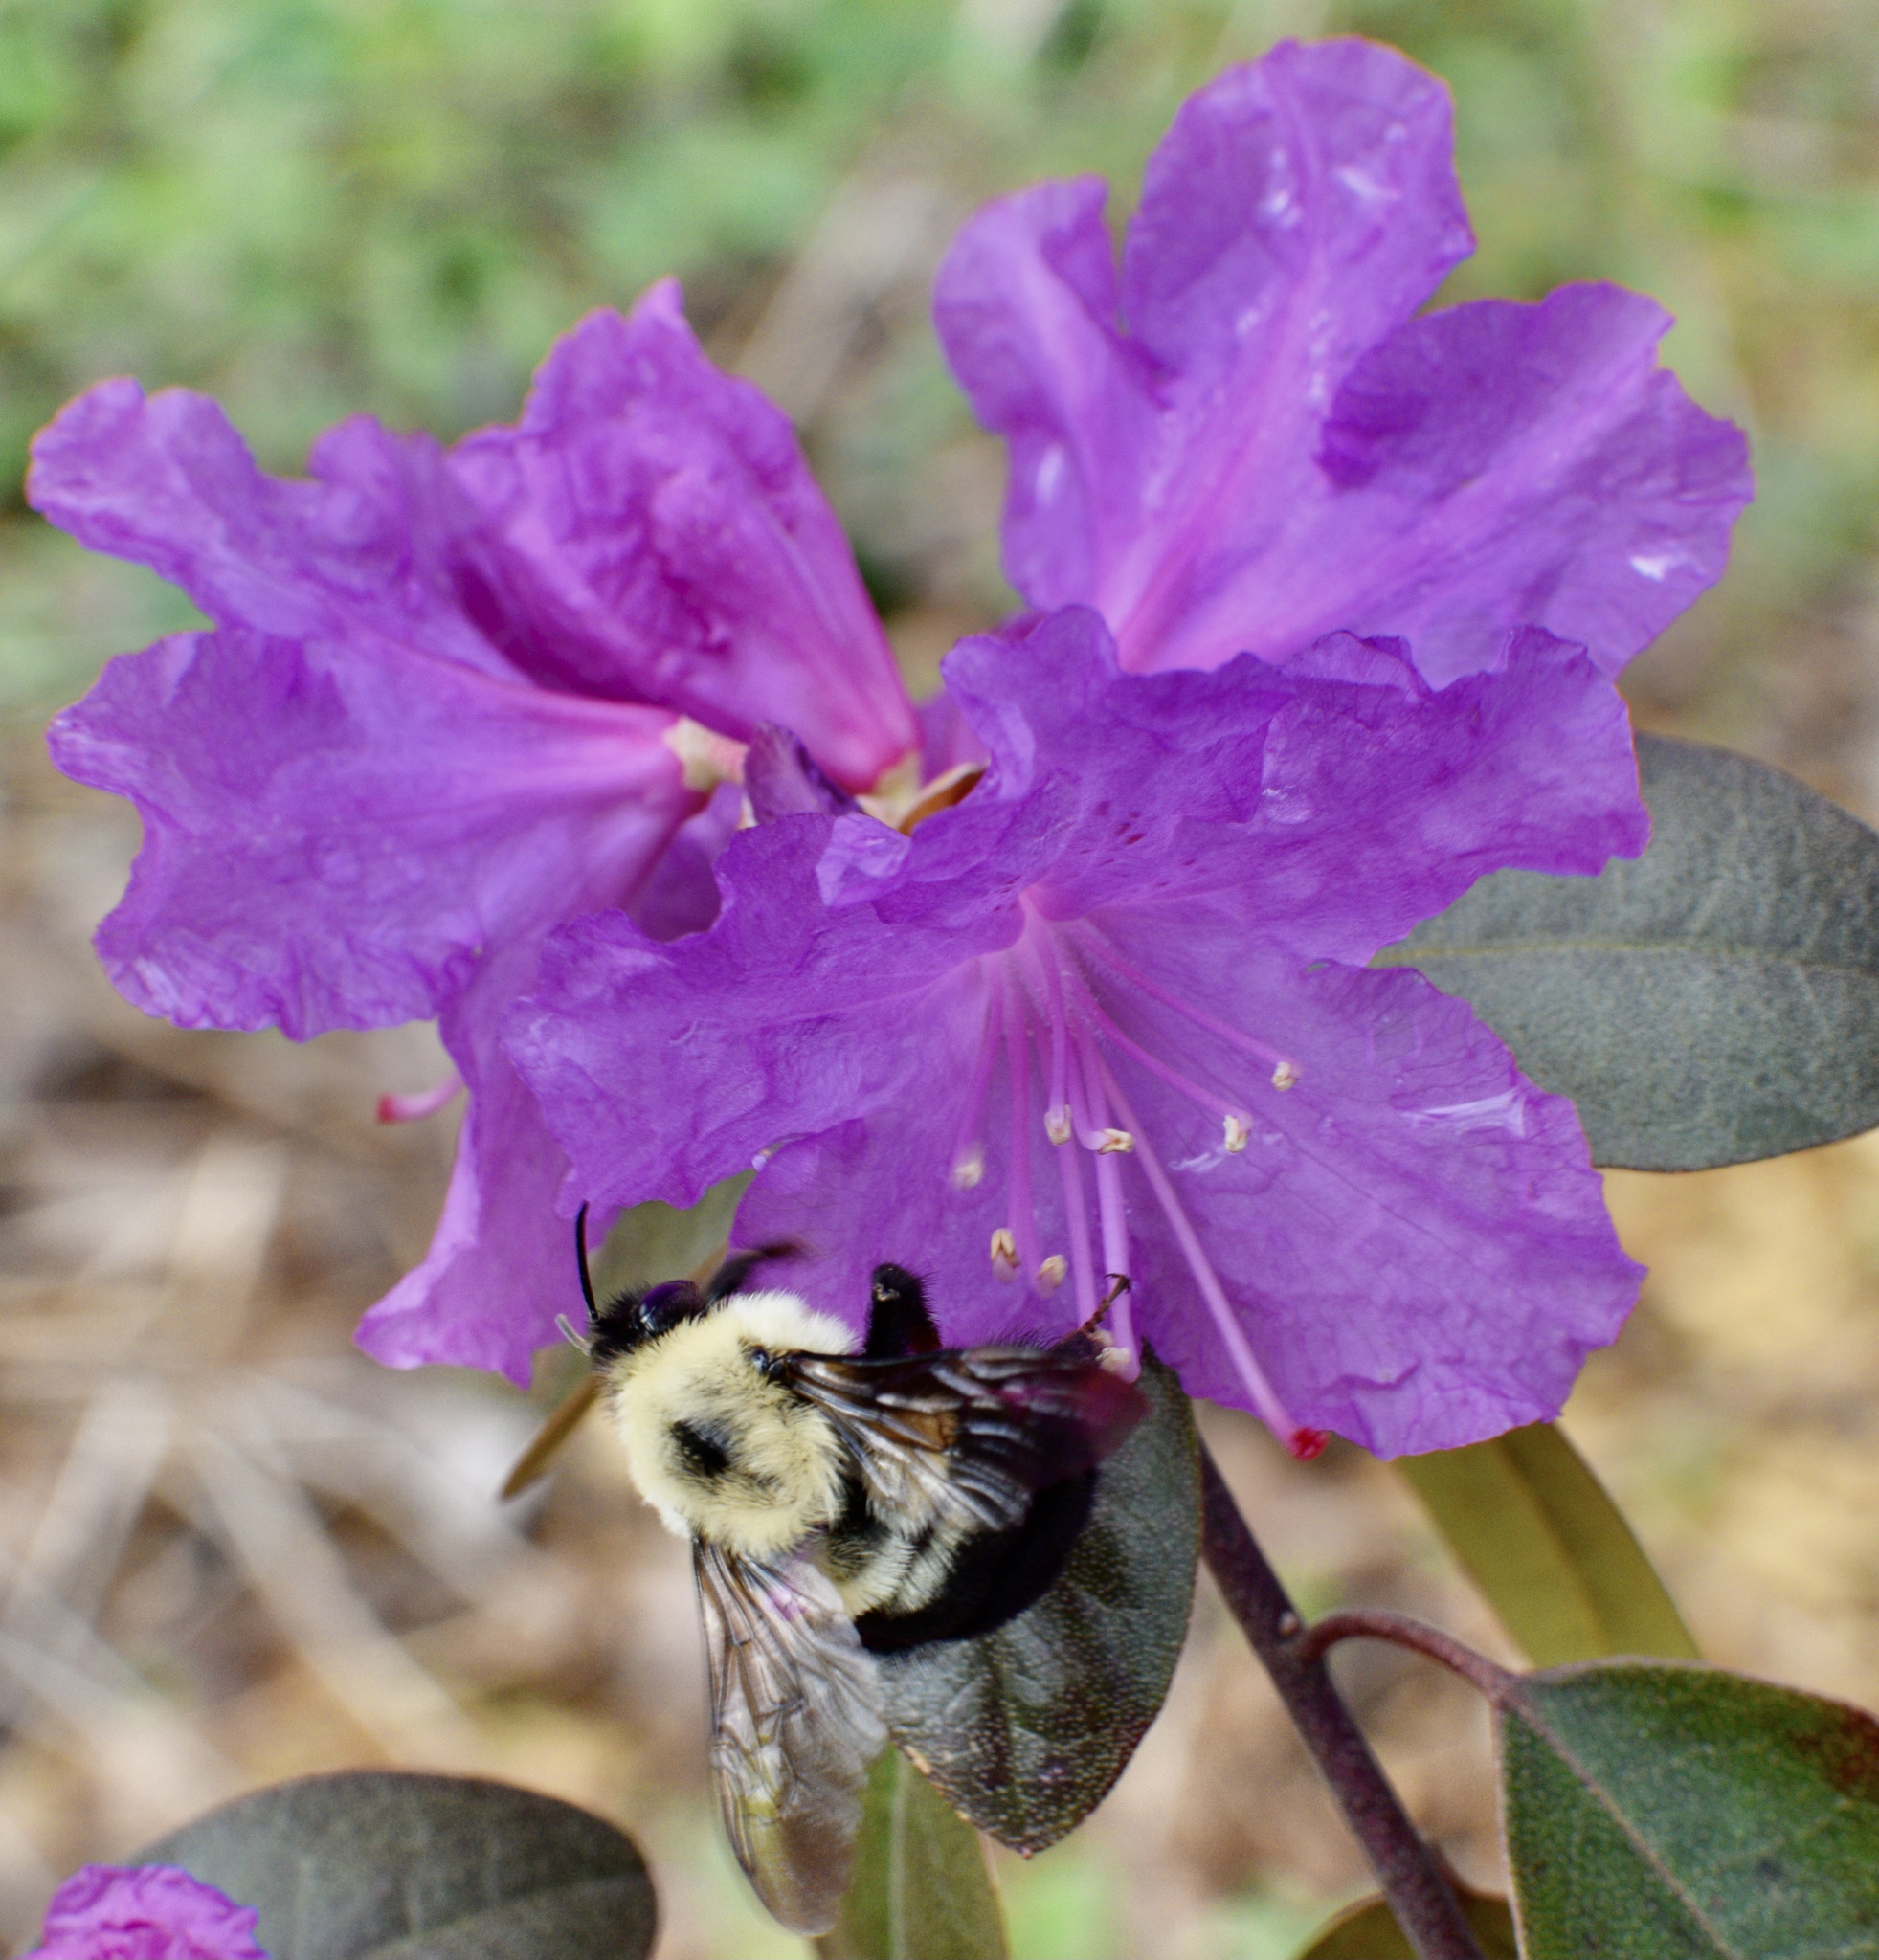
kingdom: Animalia
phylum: Arthropoda
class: Insecta
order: Hymenoptera
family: Apidae
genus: Bombus
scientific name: Bombus bimaculatus
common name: Two-spotted bumble bee
